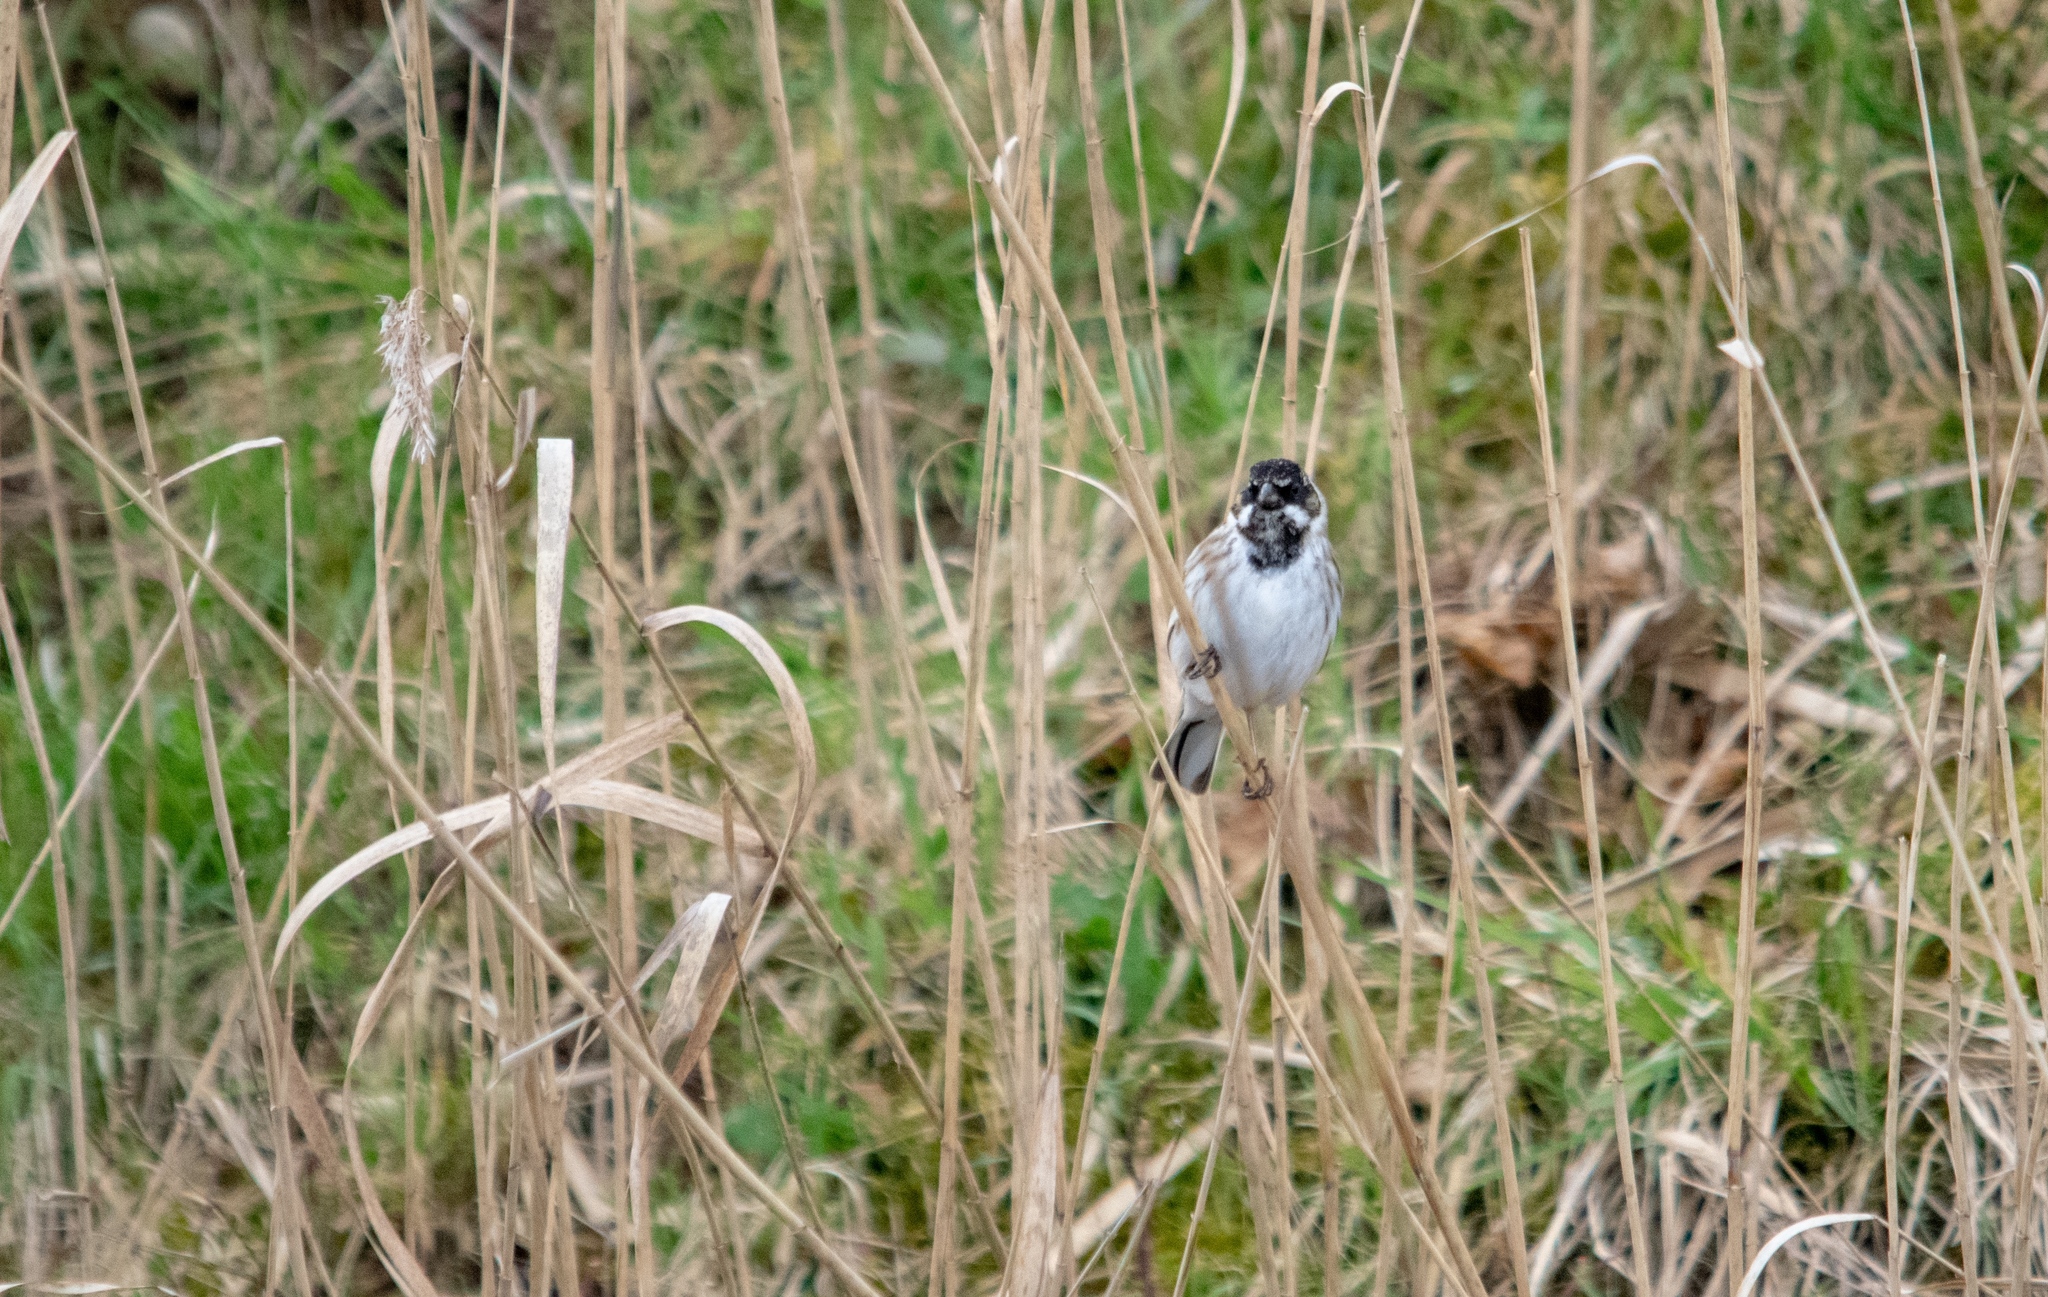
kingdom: Animalia
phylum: Chordata
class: Aves
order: Passeriformes
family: Emberizidae
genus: Emberiza
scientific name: Emberiza schoeniclus
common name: Reed bunting
